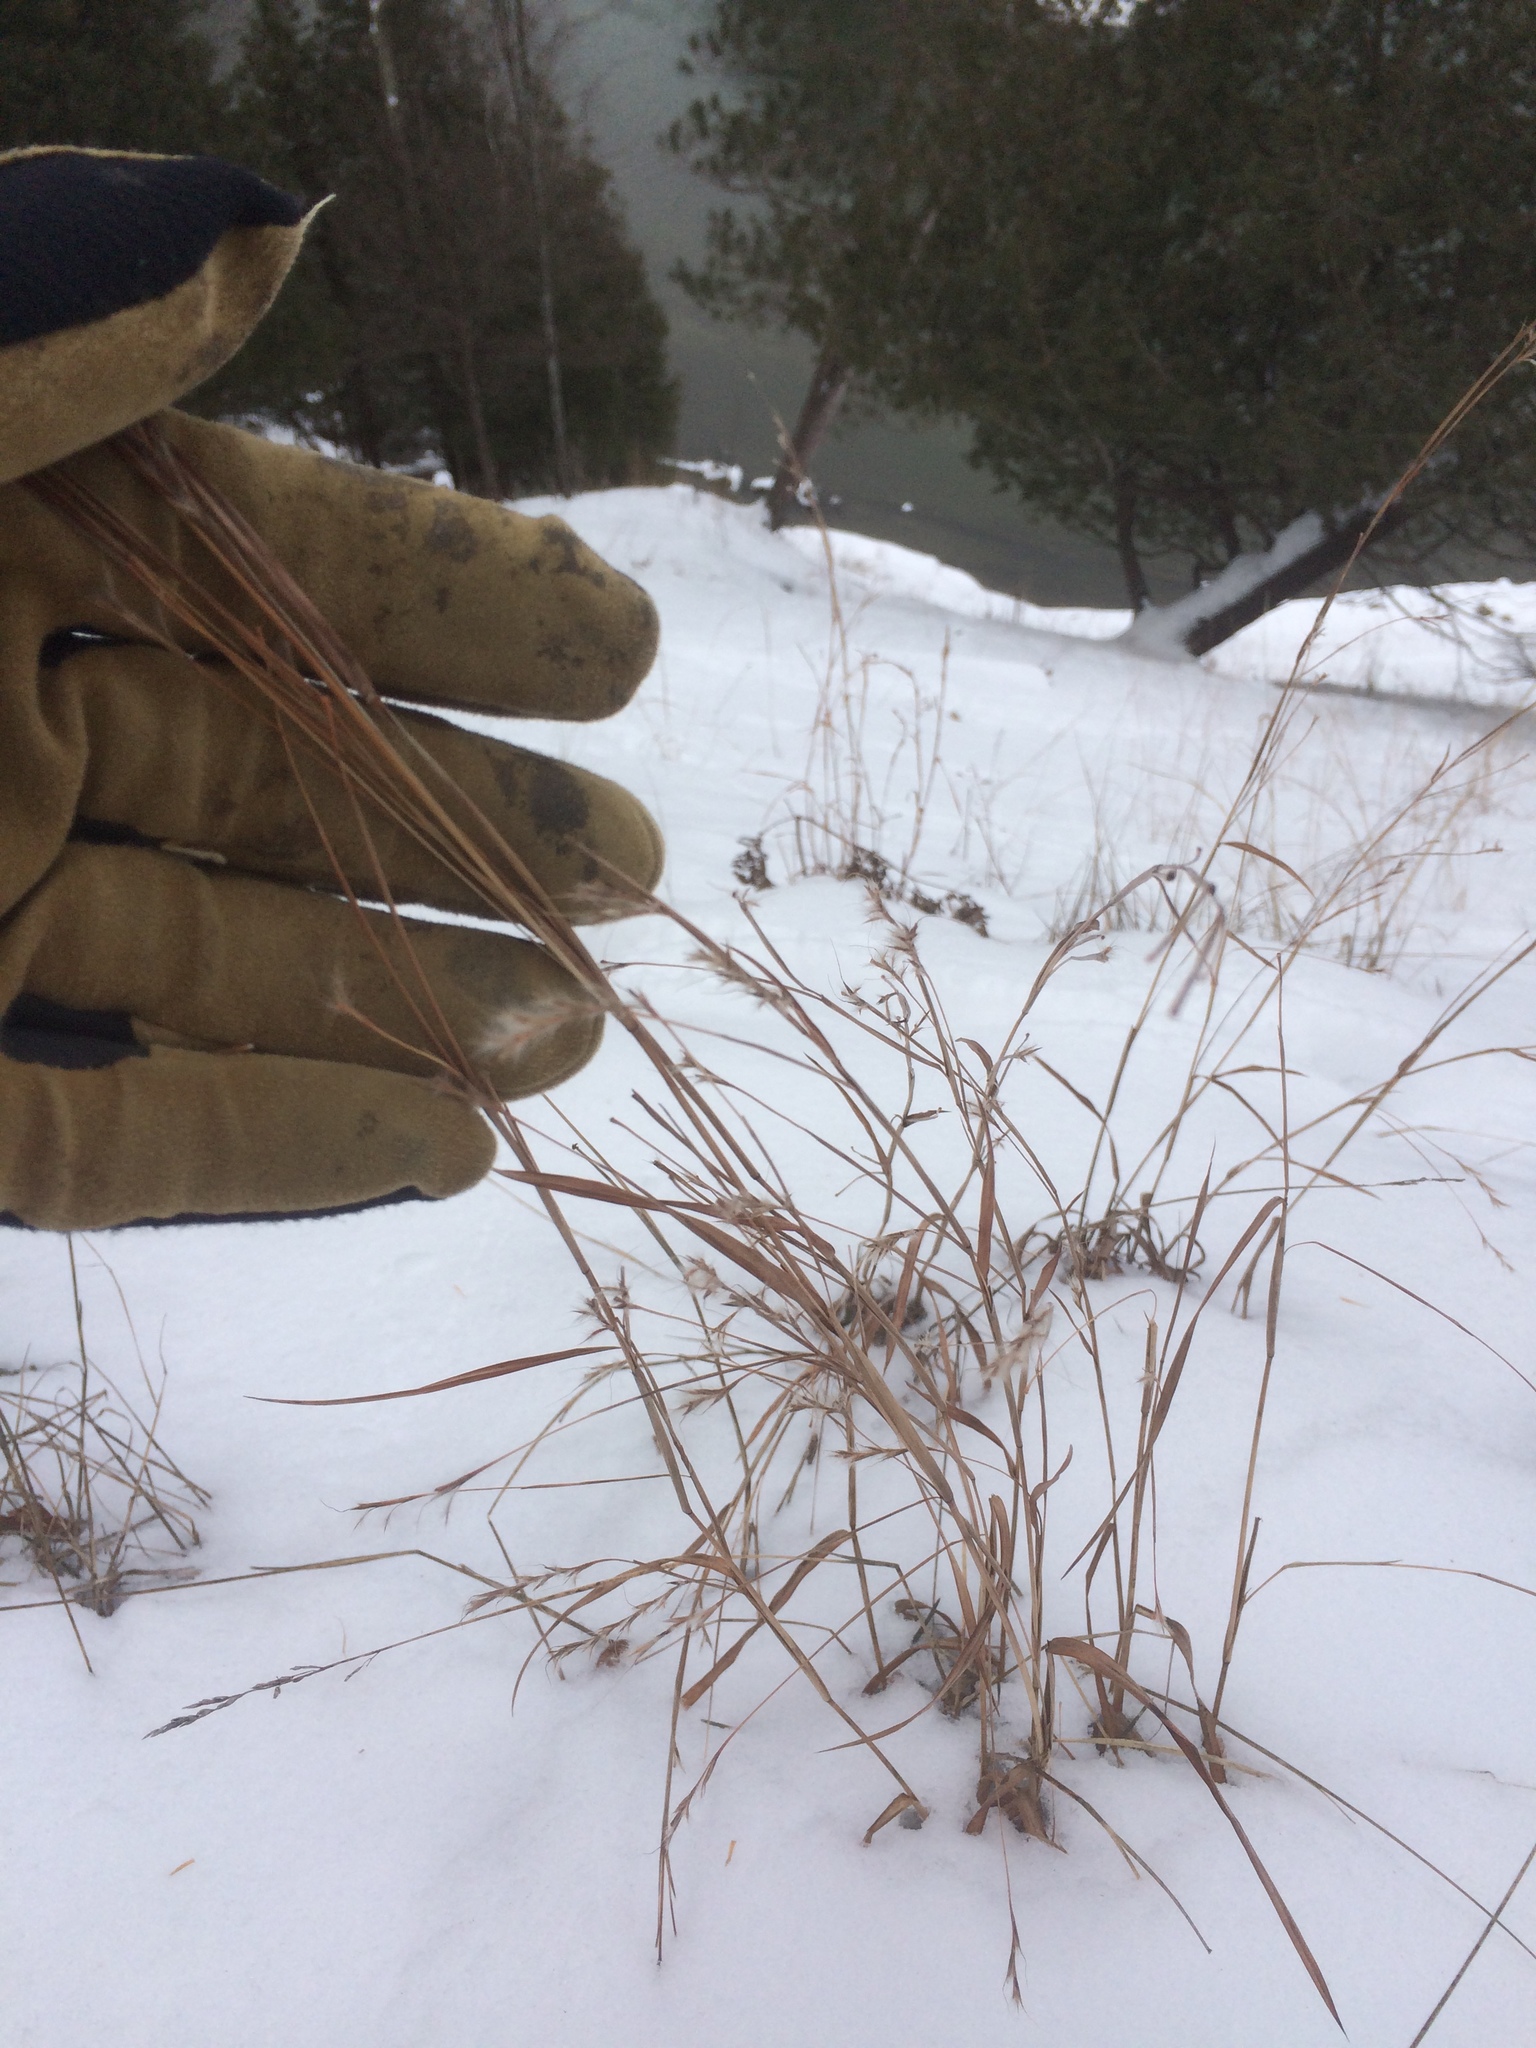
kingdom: Plantae
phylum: Tracheophyta
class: Liliopsida
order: Poales
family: Poaceae
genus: Schizachyrium
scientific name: Schizachyrium scoparium
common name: Little bluestem
